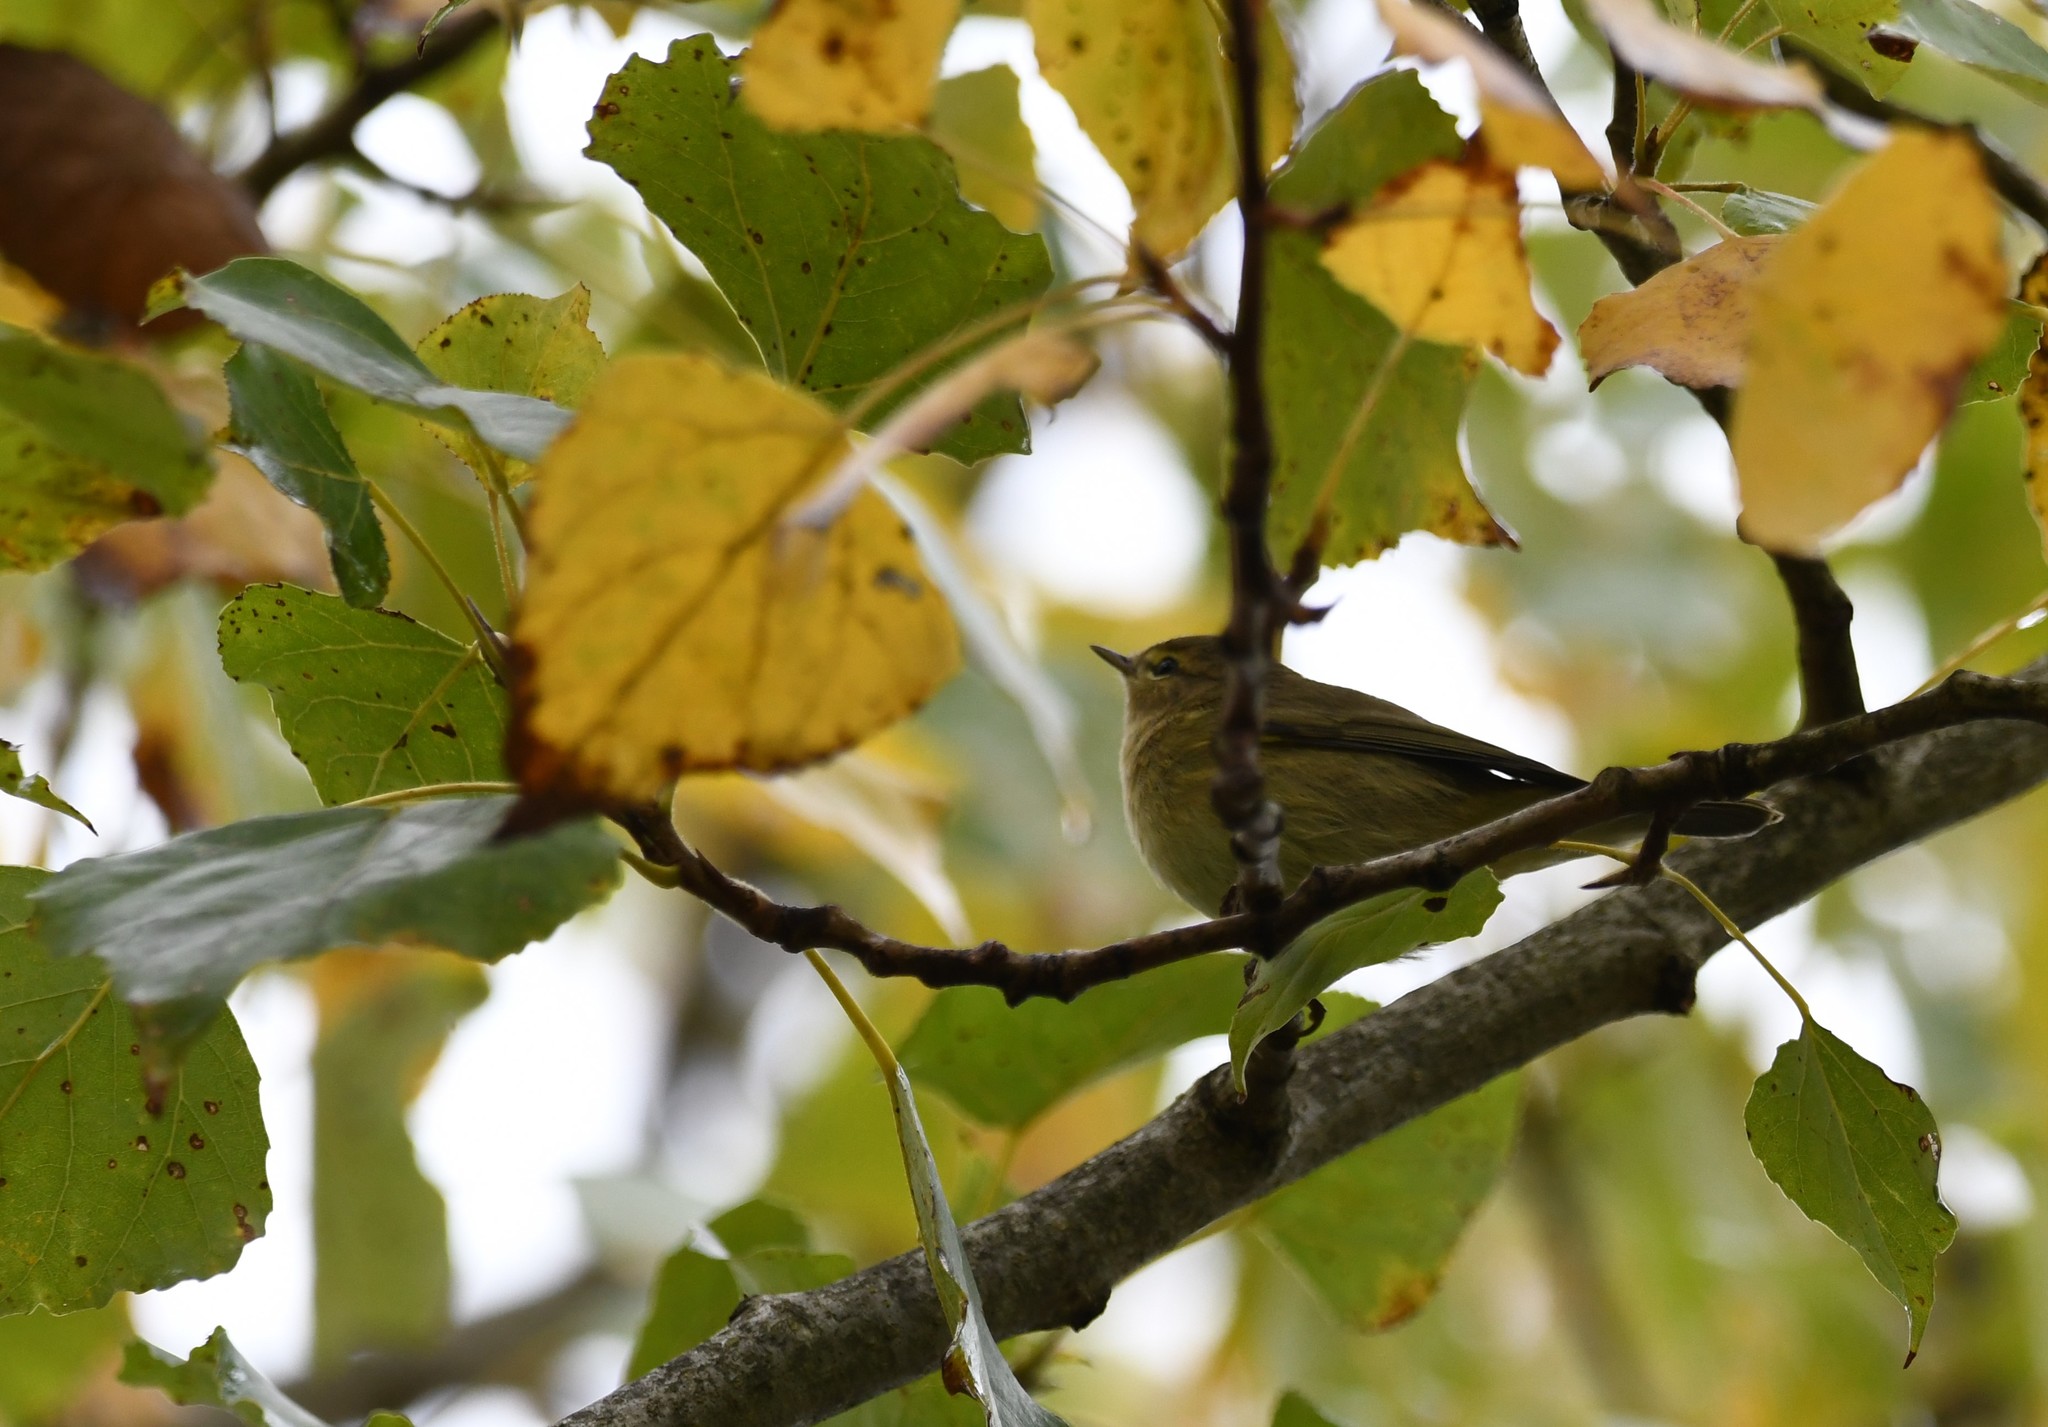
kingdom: Animalia
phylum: Chordata
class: Aves
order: Passeriformes
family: Phylloscopidae
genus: Phylloscopus
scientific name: Phylloscopus collybita
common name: Common chiffchaff
